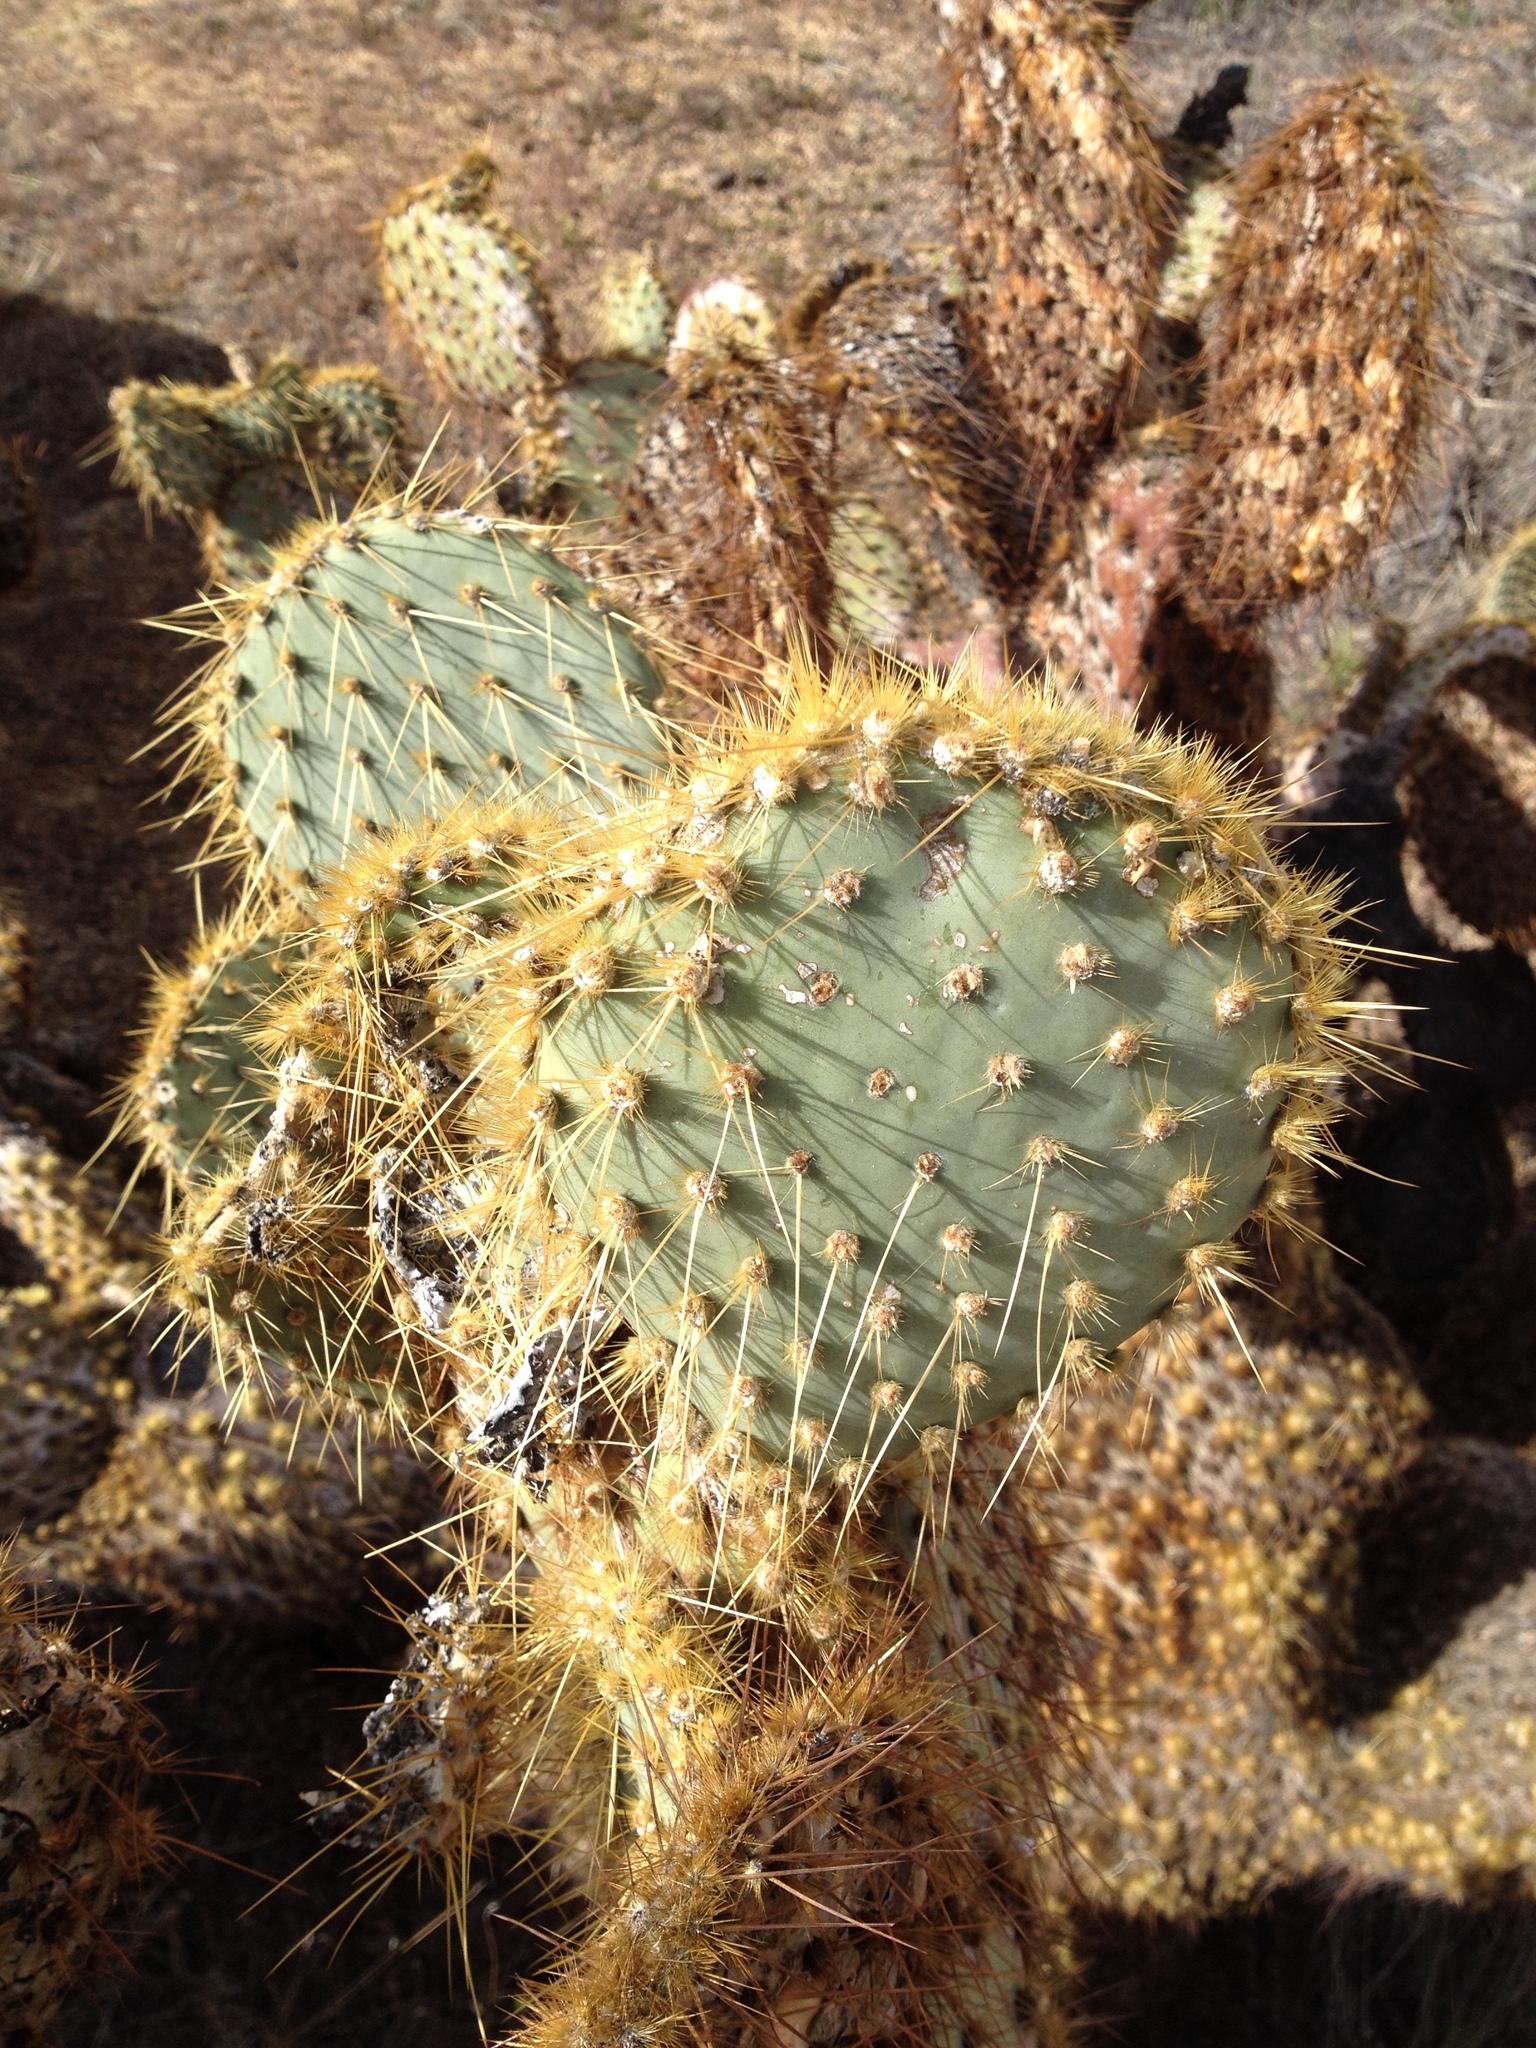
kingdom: Plantae
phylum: Tracheophyta
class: Magnoliopsida
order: Caryophyllales
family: Cactaceae
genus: Opuntia
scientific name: Opuntia chlorotica
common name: Dollar-joint prickly-pear
